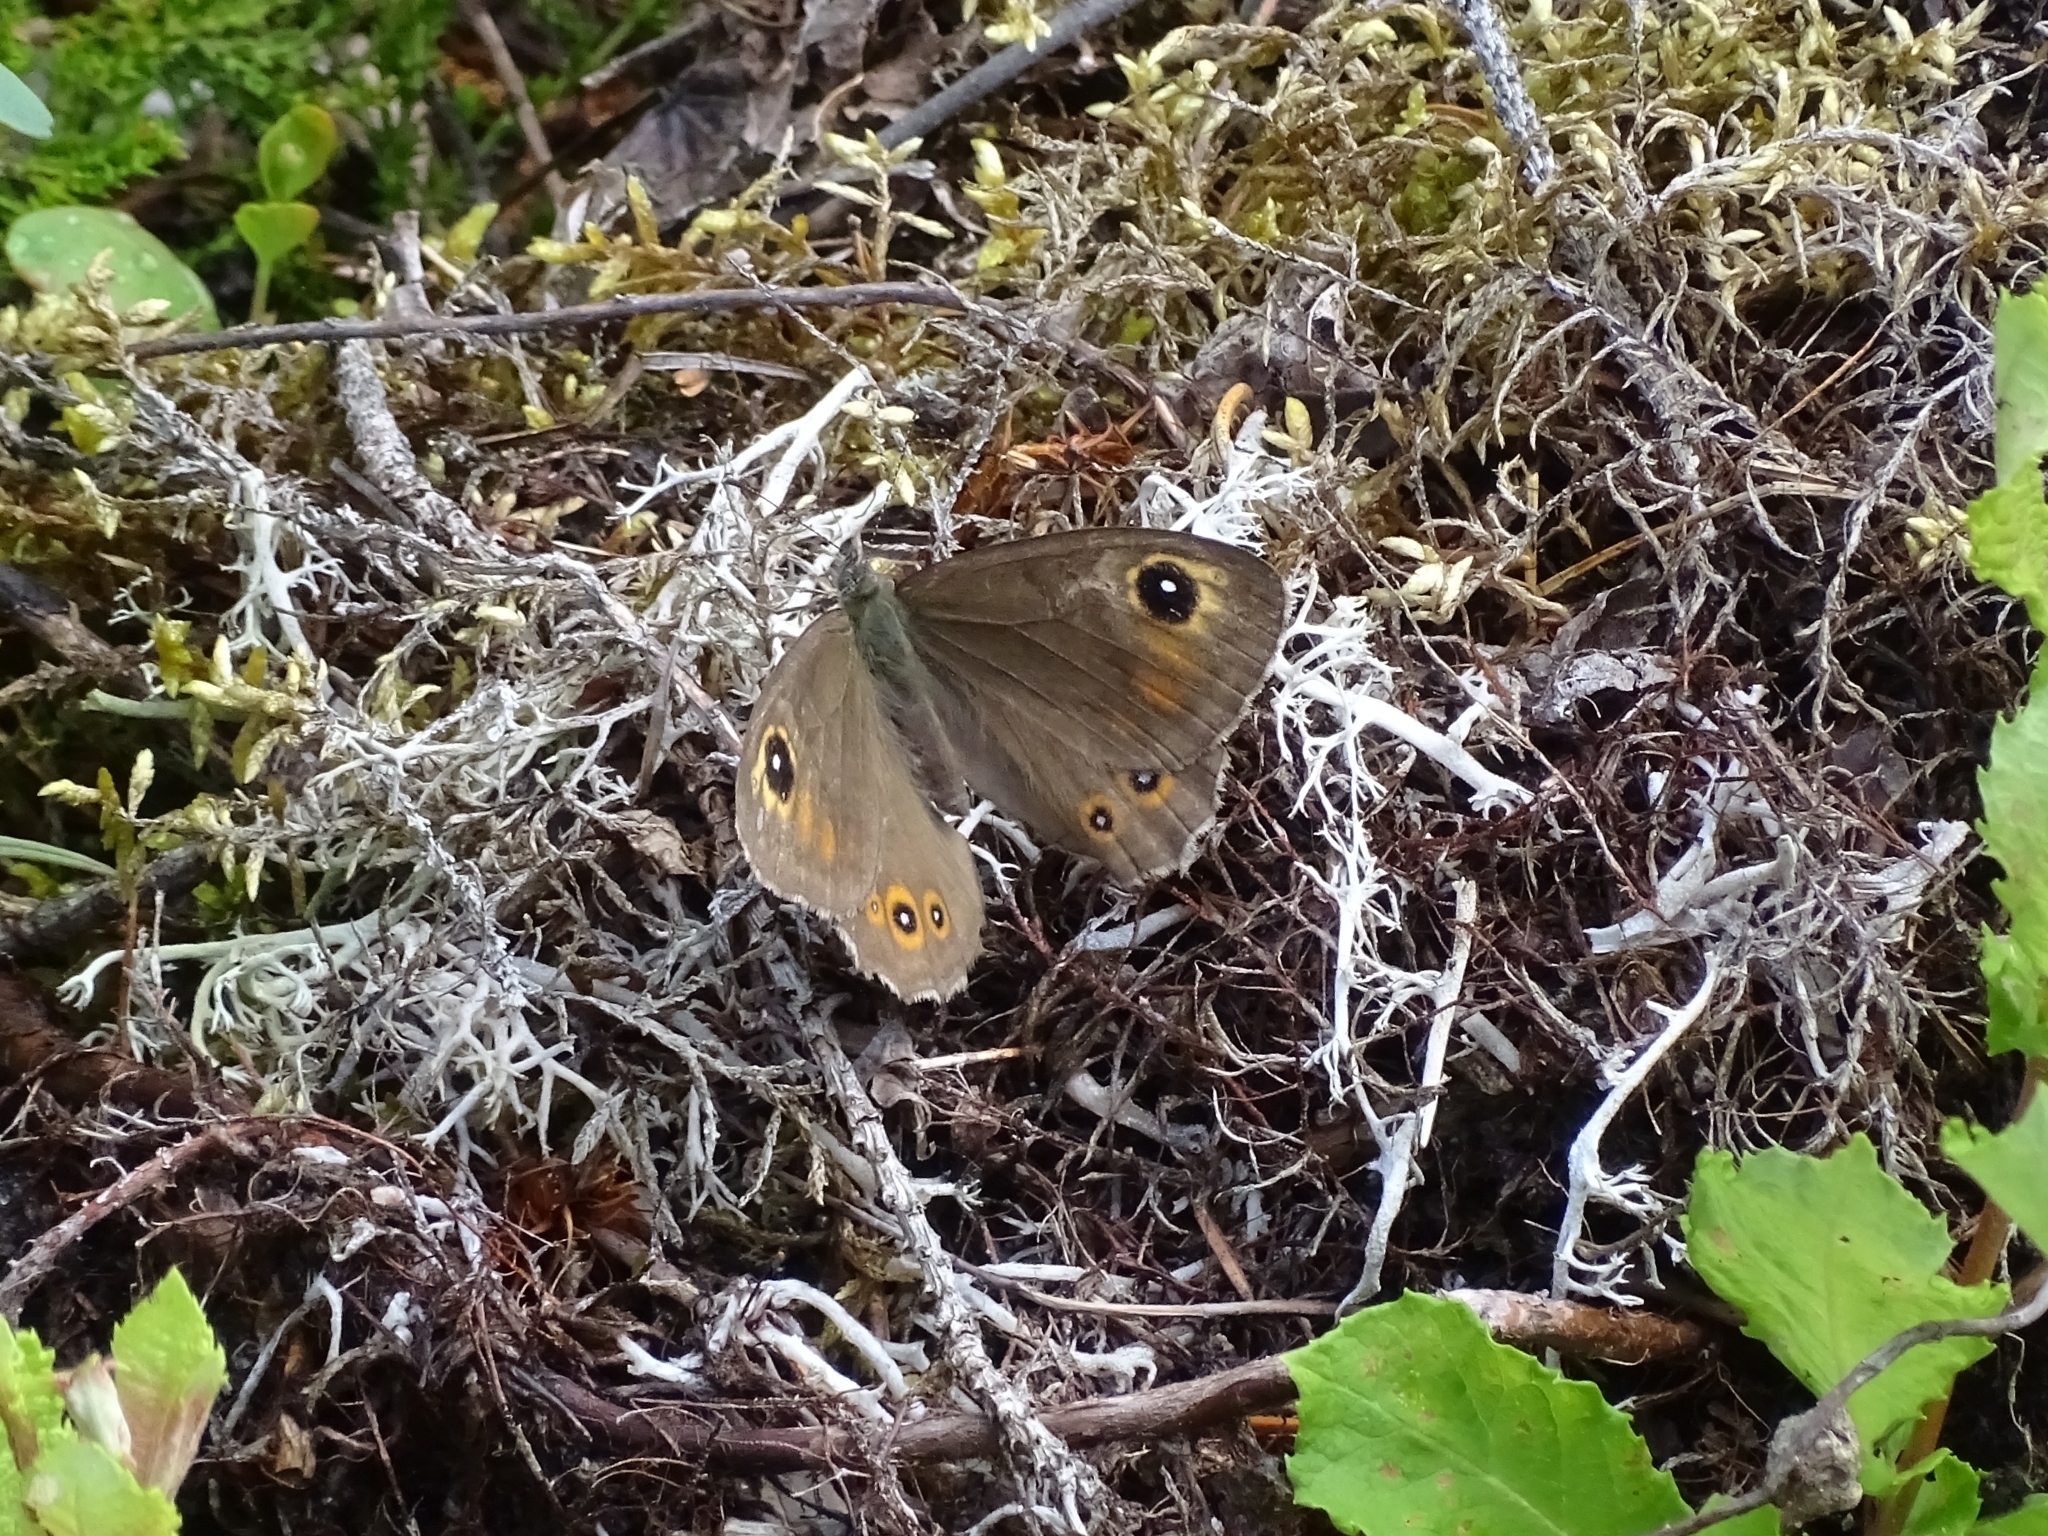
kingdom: Animalia
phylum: Arthropoda
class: Insecta
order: Lepidoptera
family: Nymphalidae
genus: Pararge
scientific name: Pararge Lasiommata maera
